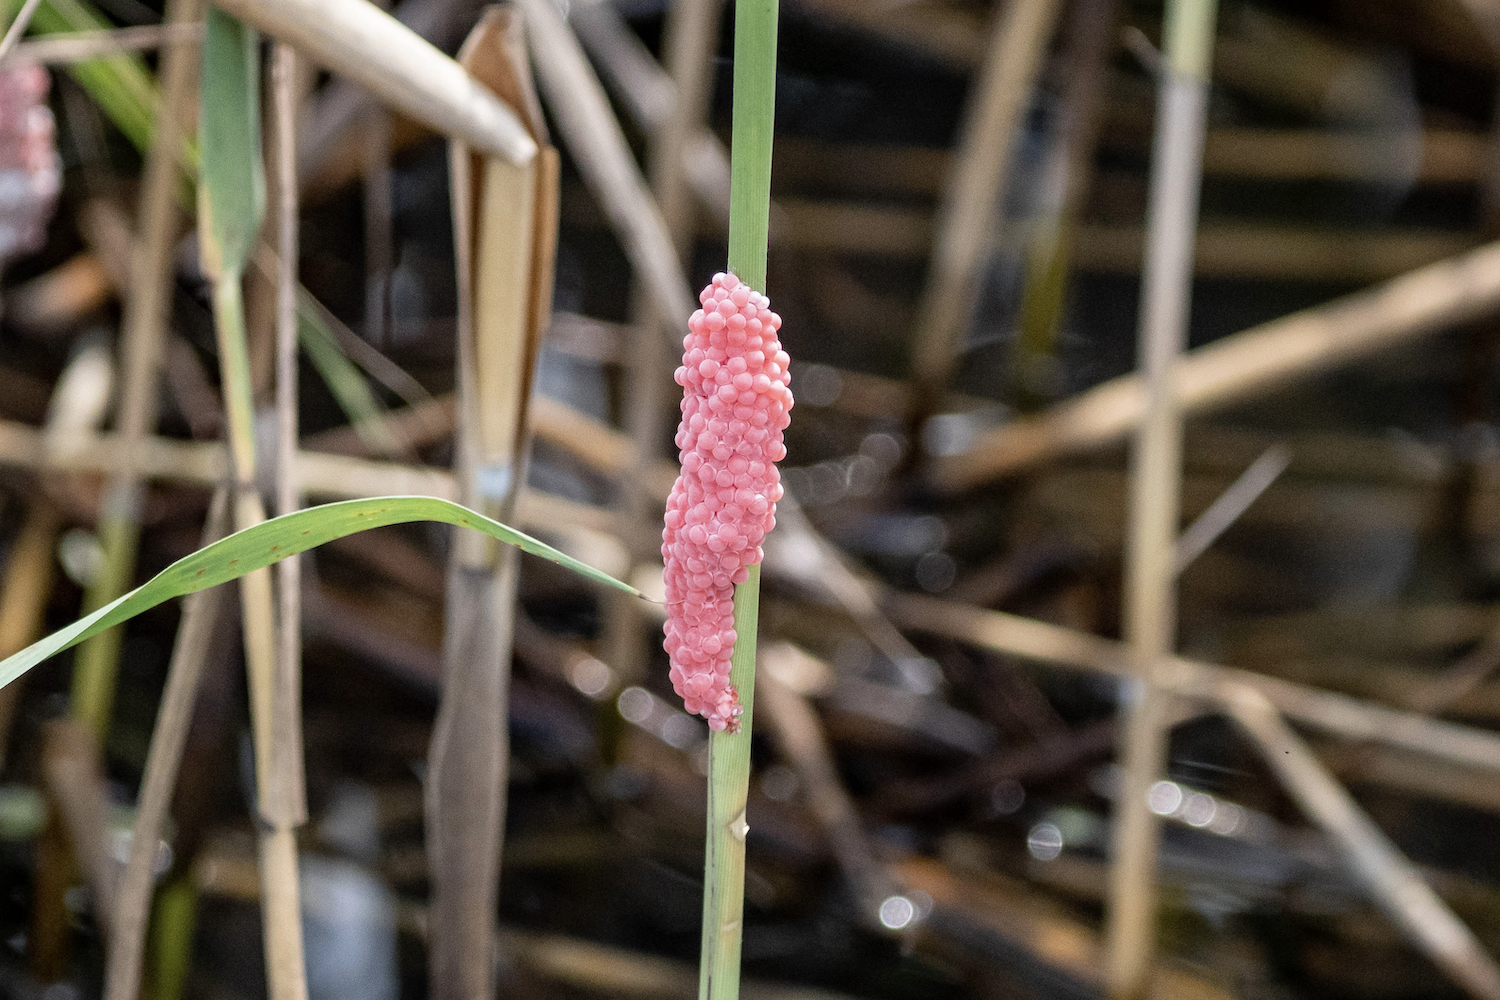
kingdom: Animalia
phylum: Mollusca
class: Gastropoda
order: Architaenioglossa
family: Ampullariidae
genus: Pomacea
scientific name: Pomacea canaliculata
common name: Channeled applesnail
